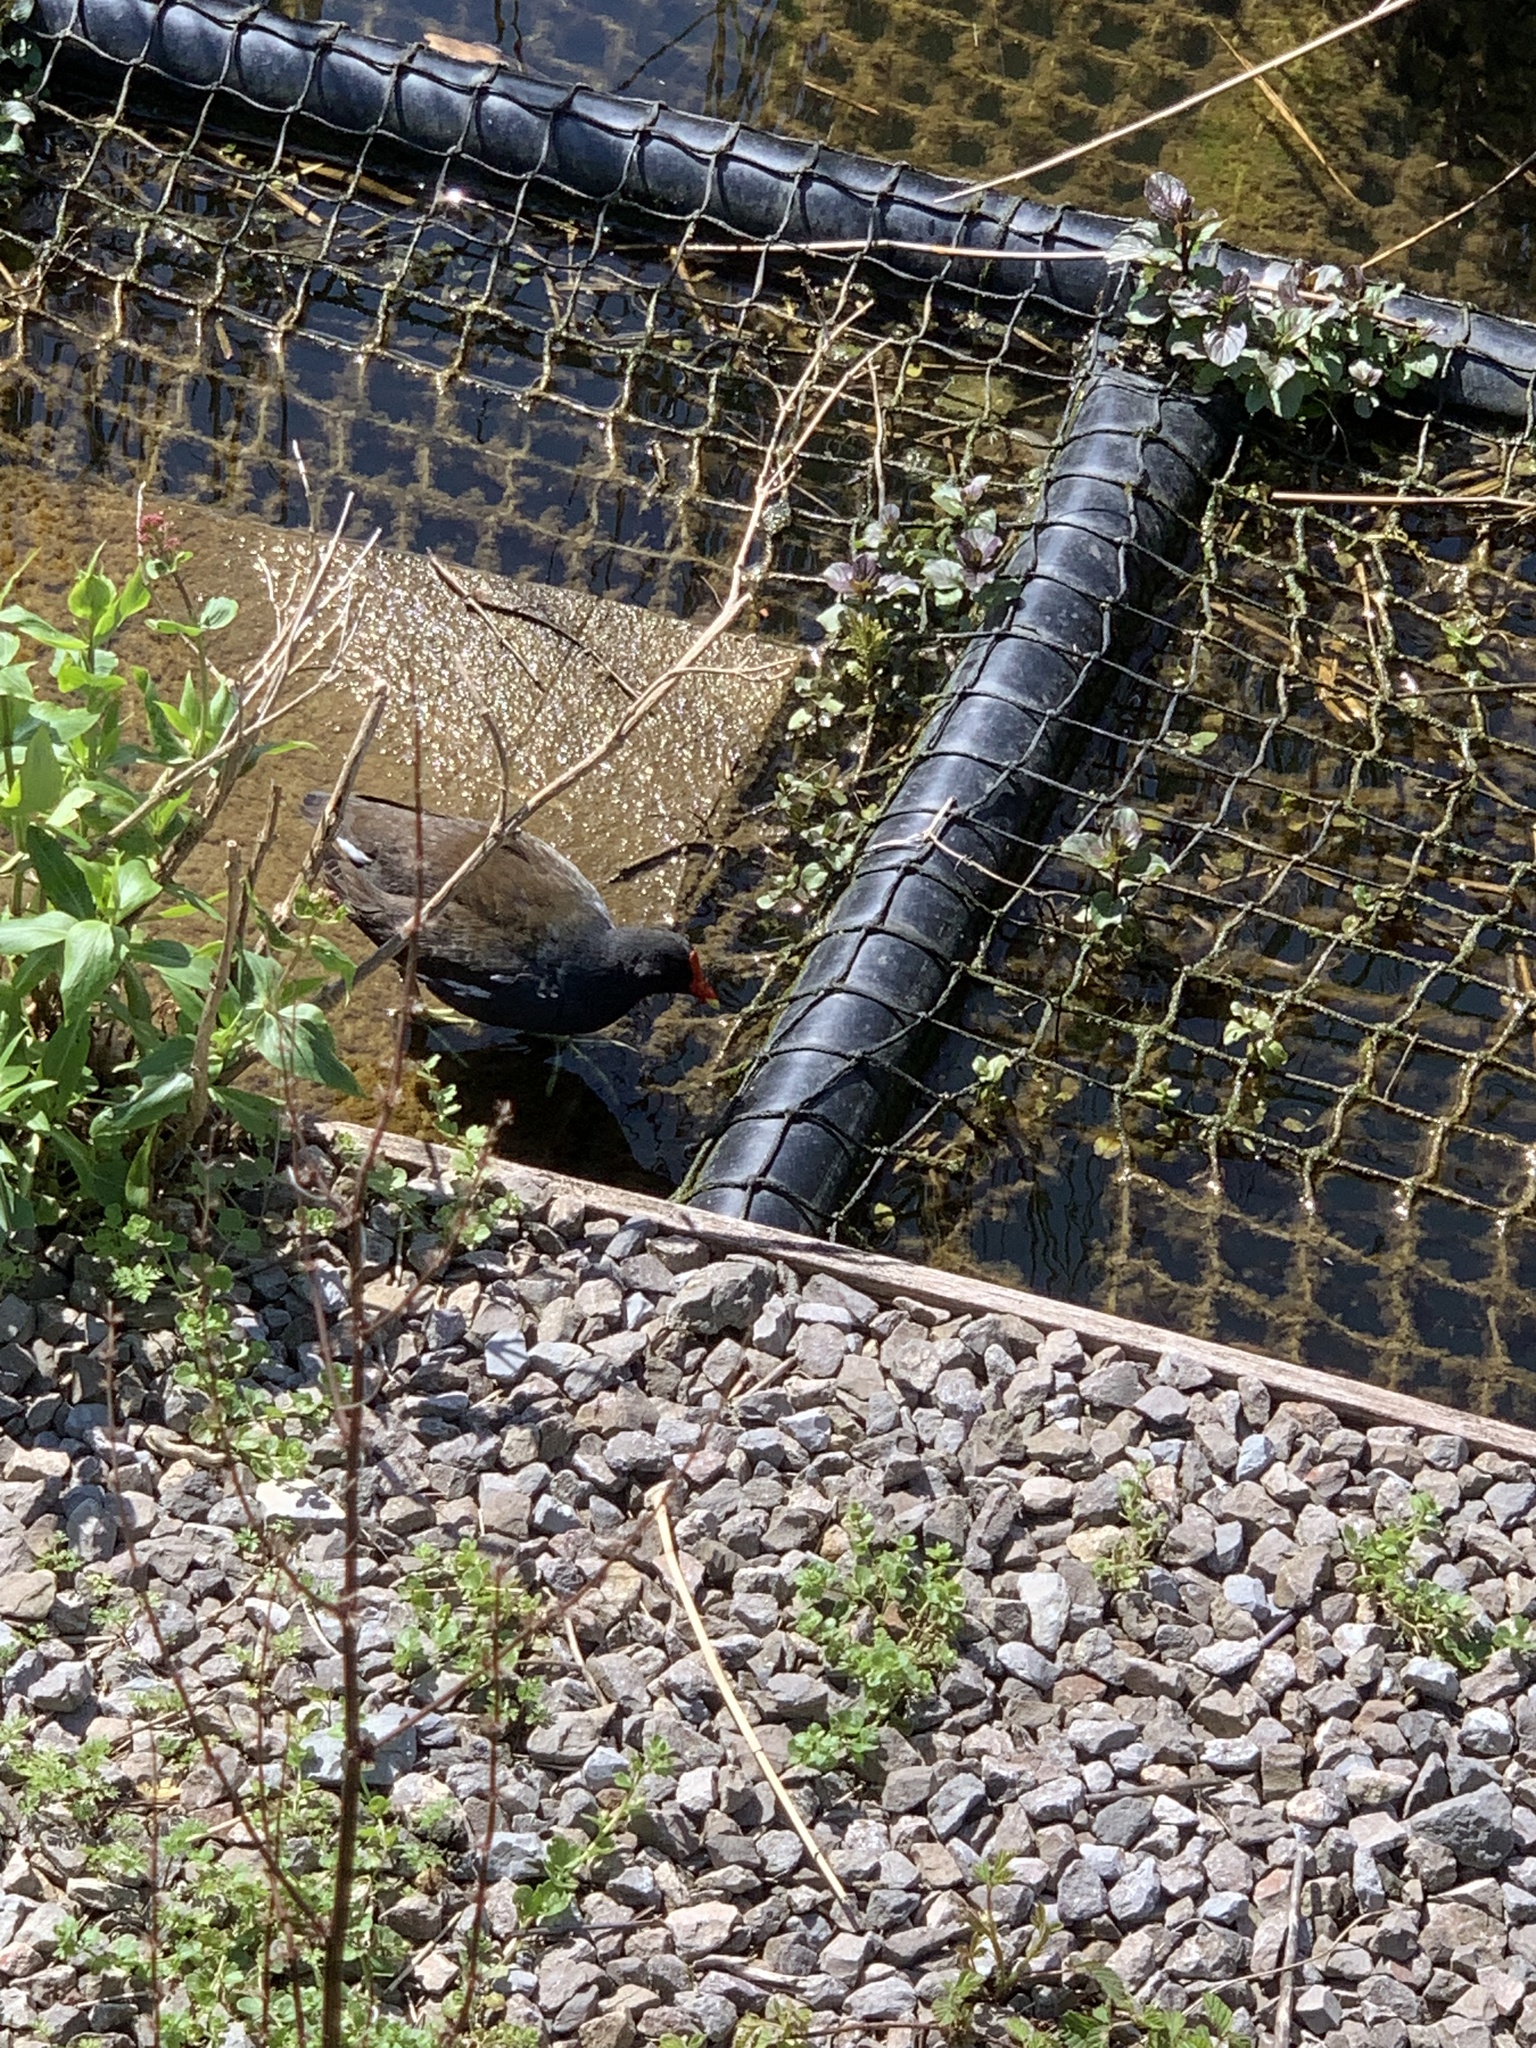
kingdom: Animalia
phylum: Chordata
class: Aves
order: Gruiformes
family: Rallidae
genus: Gallinula
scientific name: Gallinula chloropus
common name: Common moorhen
